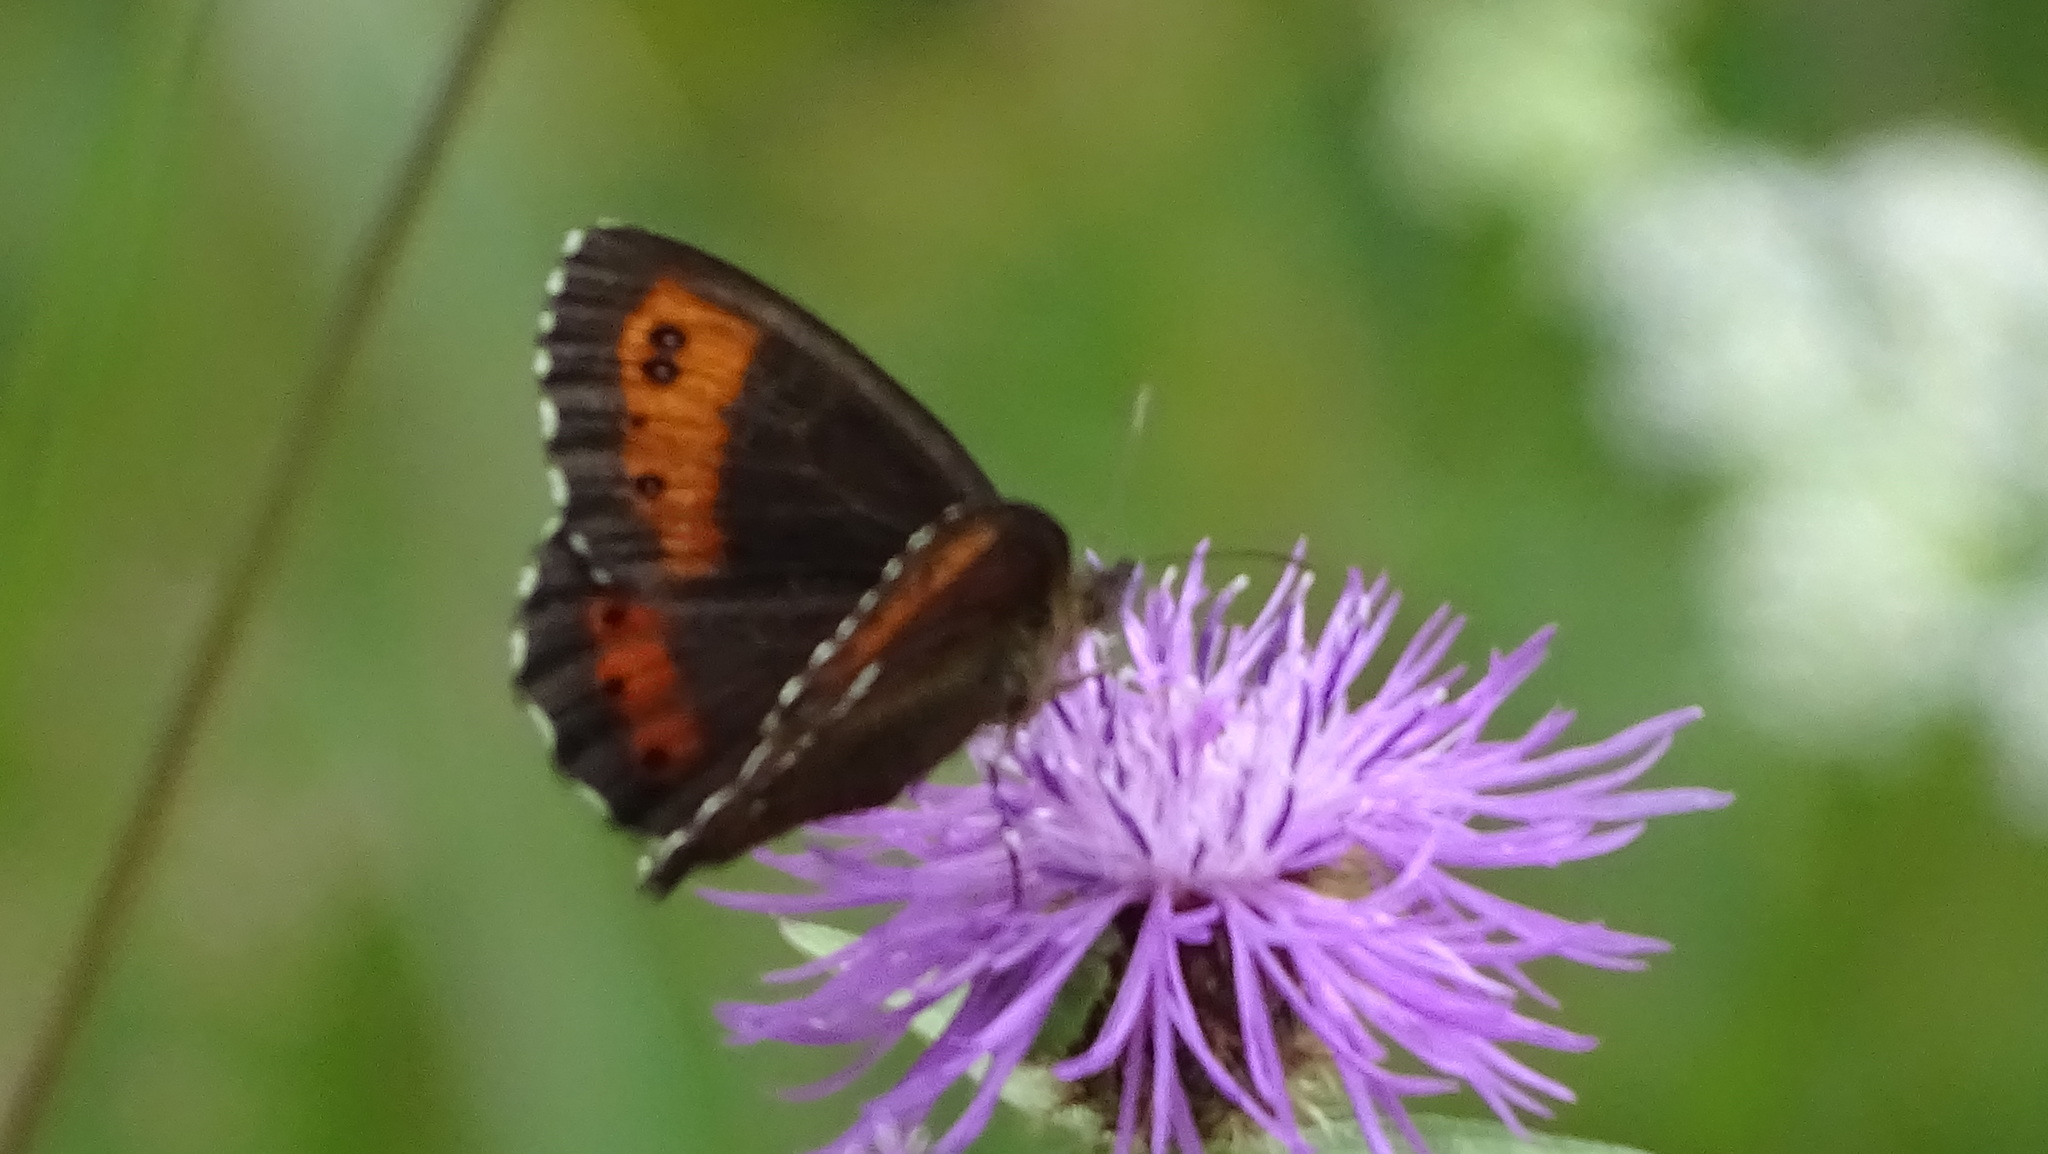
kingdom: Animalia
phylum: Arthropoda
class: Insecta
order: Lepidoptera
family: Nymphalidae
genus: Erebia
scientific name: Erebia ligea
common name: Arran brown
